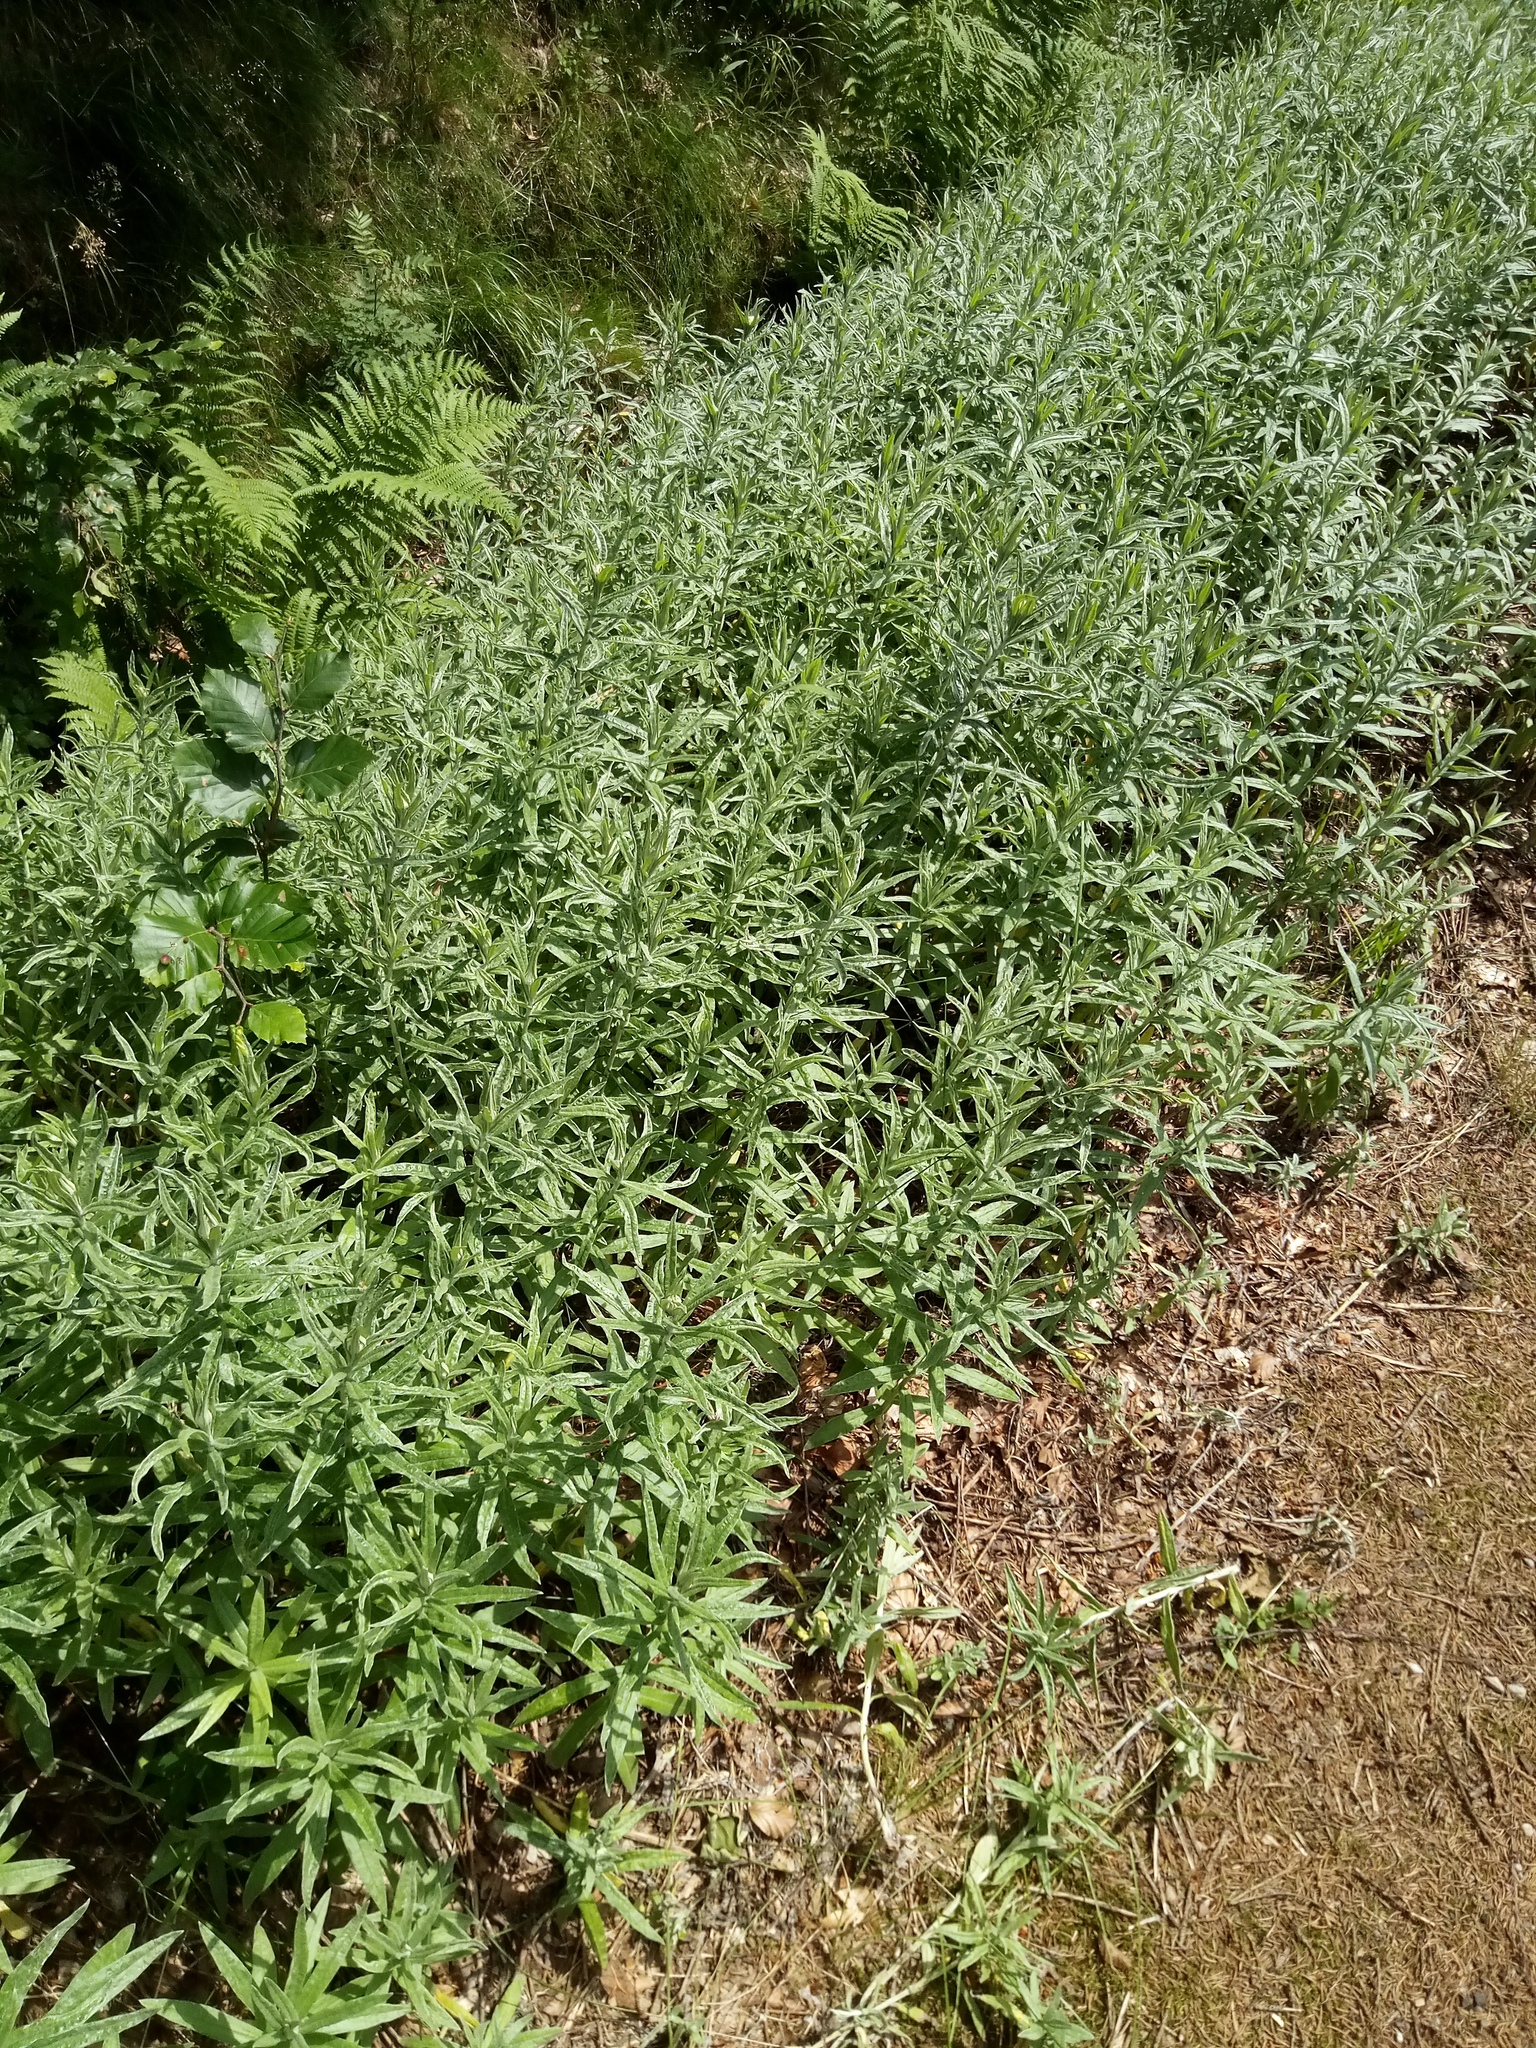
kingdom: Plantae
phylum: Tracheophyta
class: Magnoliopsida
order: Asterales
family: Asteraceae
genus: Anaphalis
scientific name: Anaphalis margaritacea
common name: Pearly everlasting
